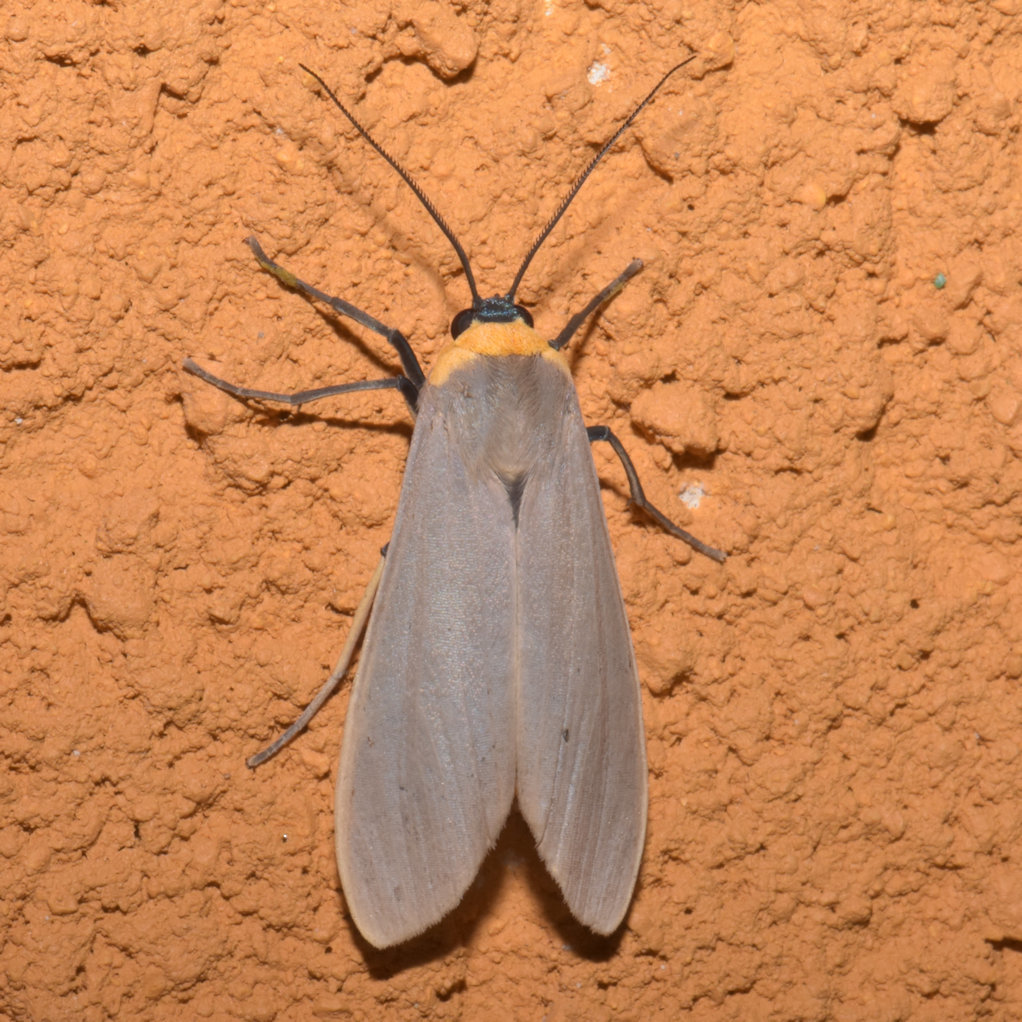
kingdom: Animalia
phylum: Arthropoda
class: Insecta
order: Lepidoptera
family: Erebidae
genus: Lymire
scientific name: Lymire melanocephala
